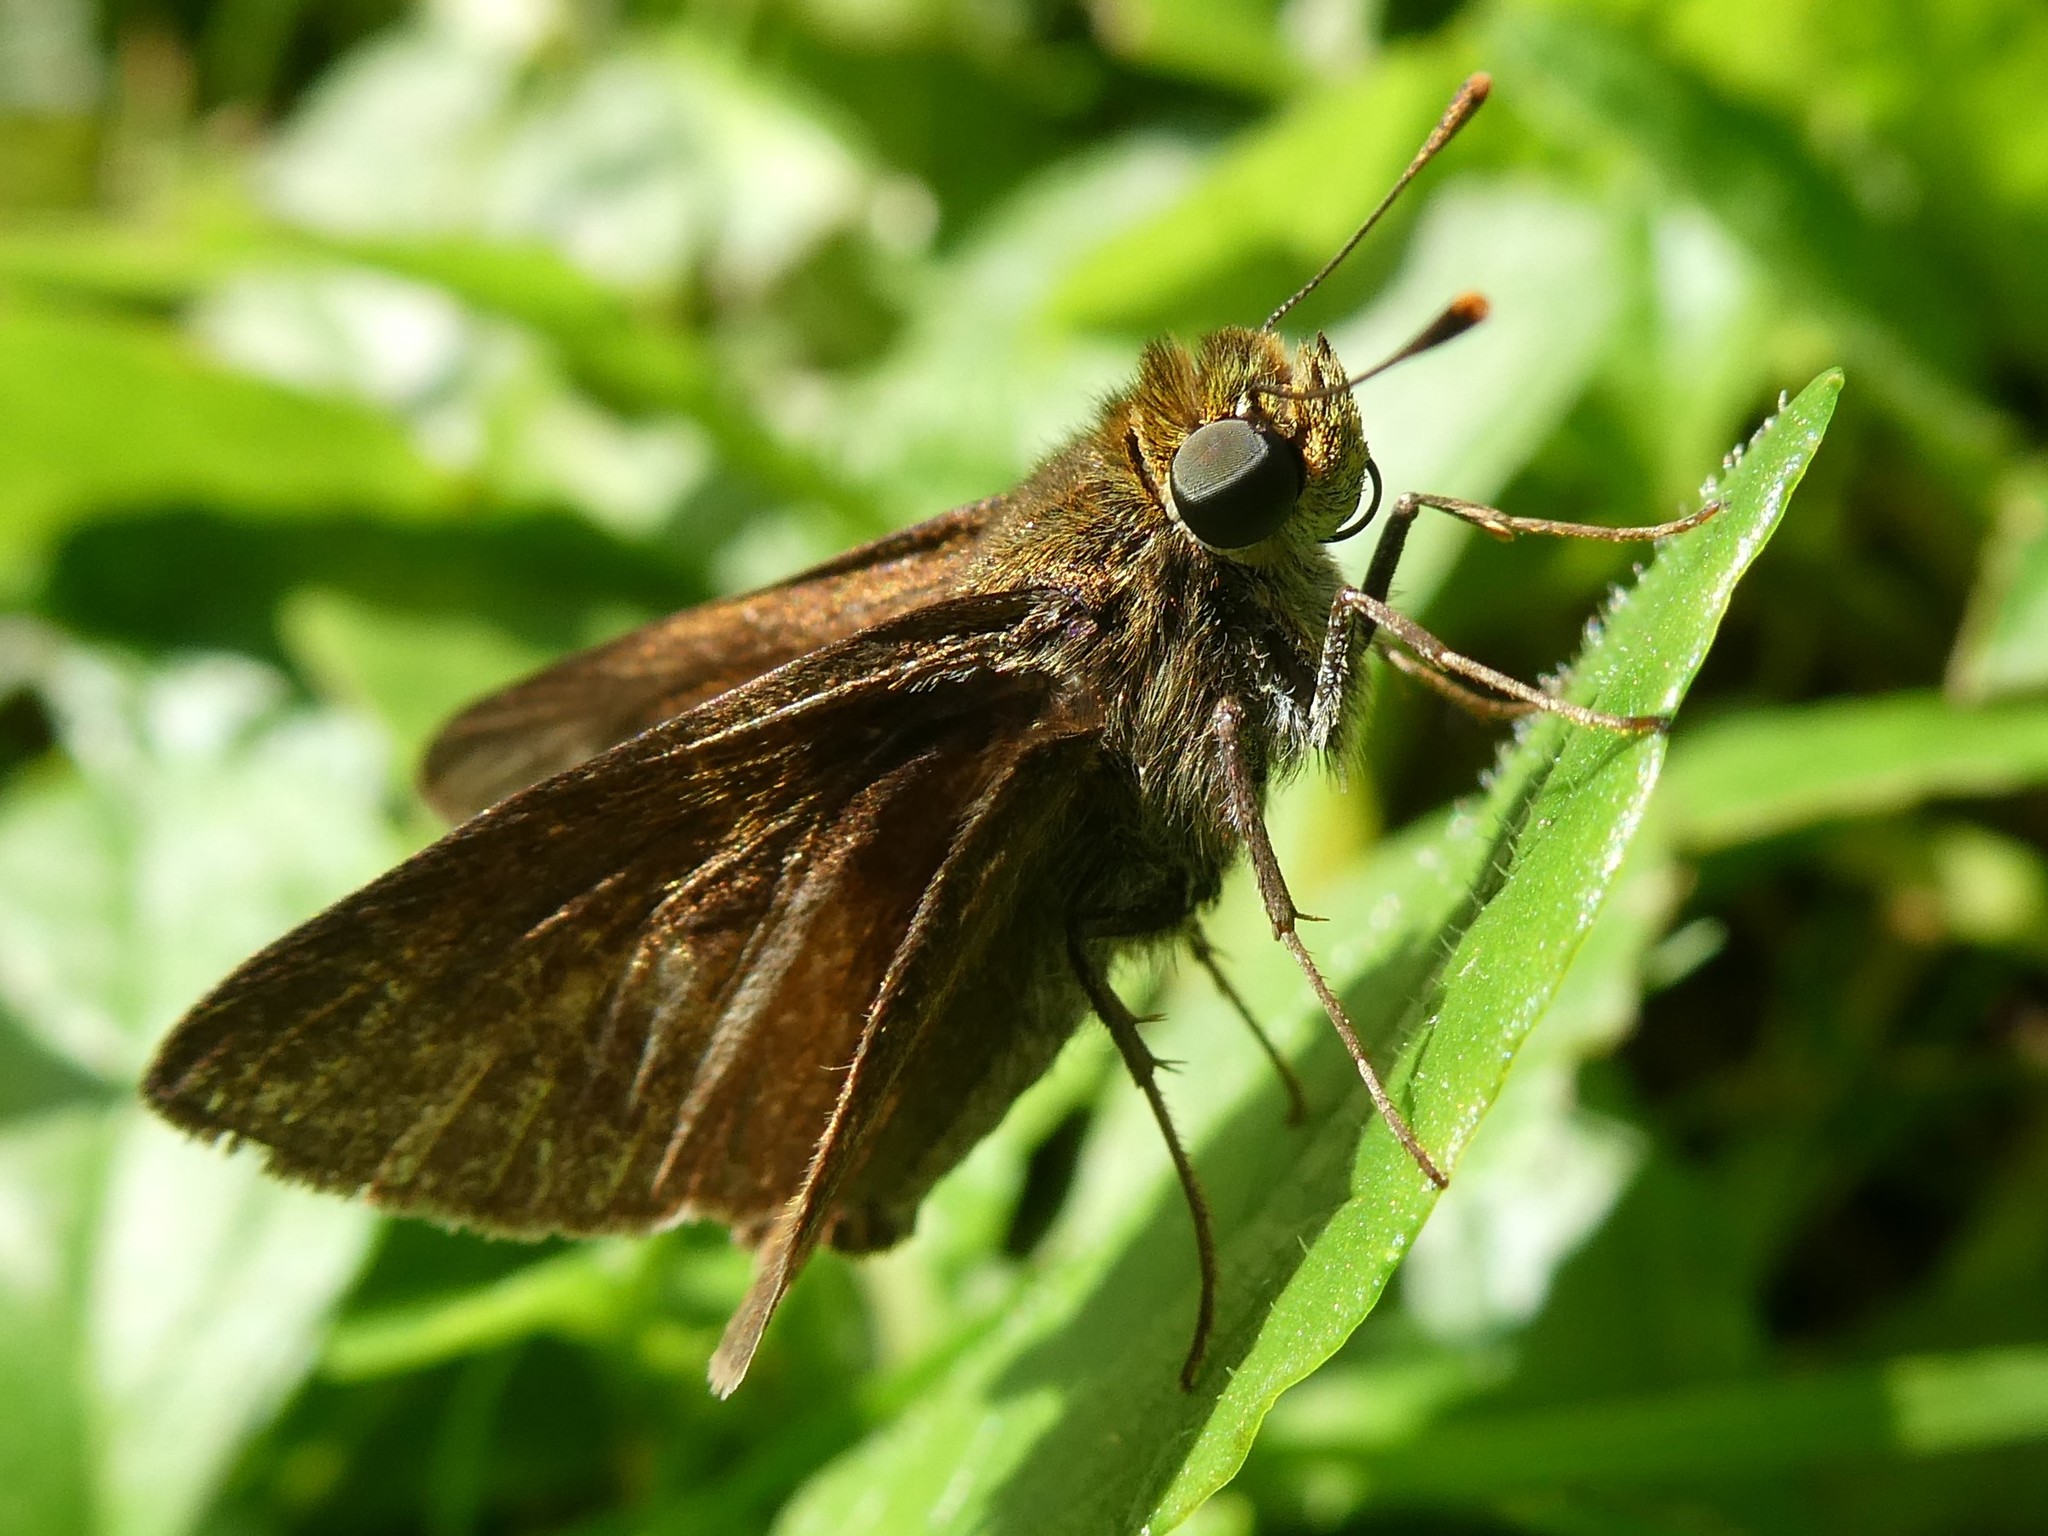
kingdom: Animalia
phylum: Arthropoda
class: Insecta
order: Lepidoptera
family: Hesperiidae
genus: Euphyes
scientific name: Euphyes vestris
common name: Dun skipper
